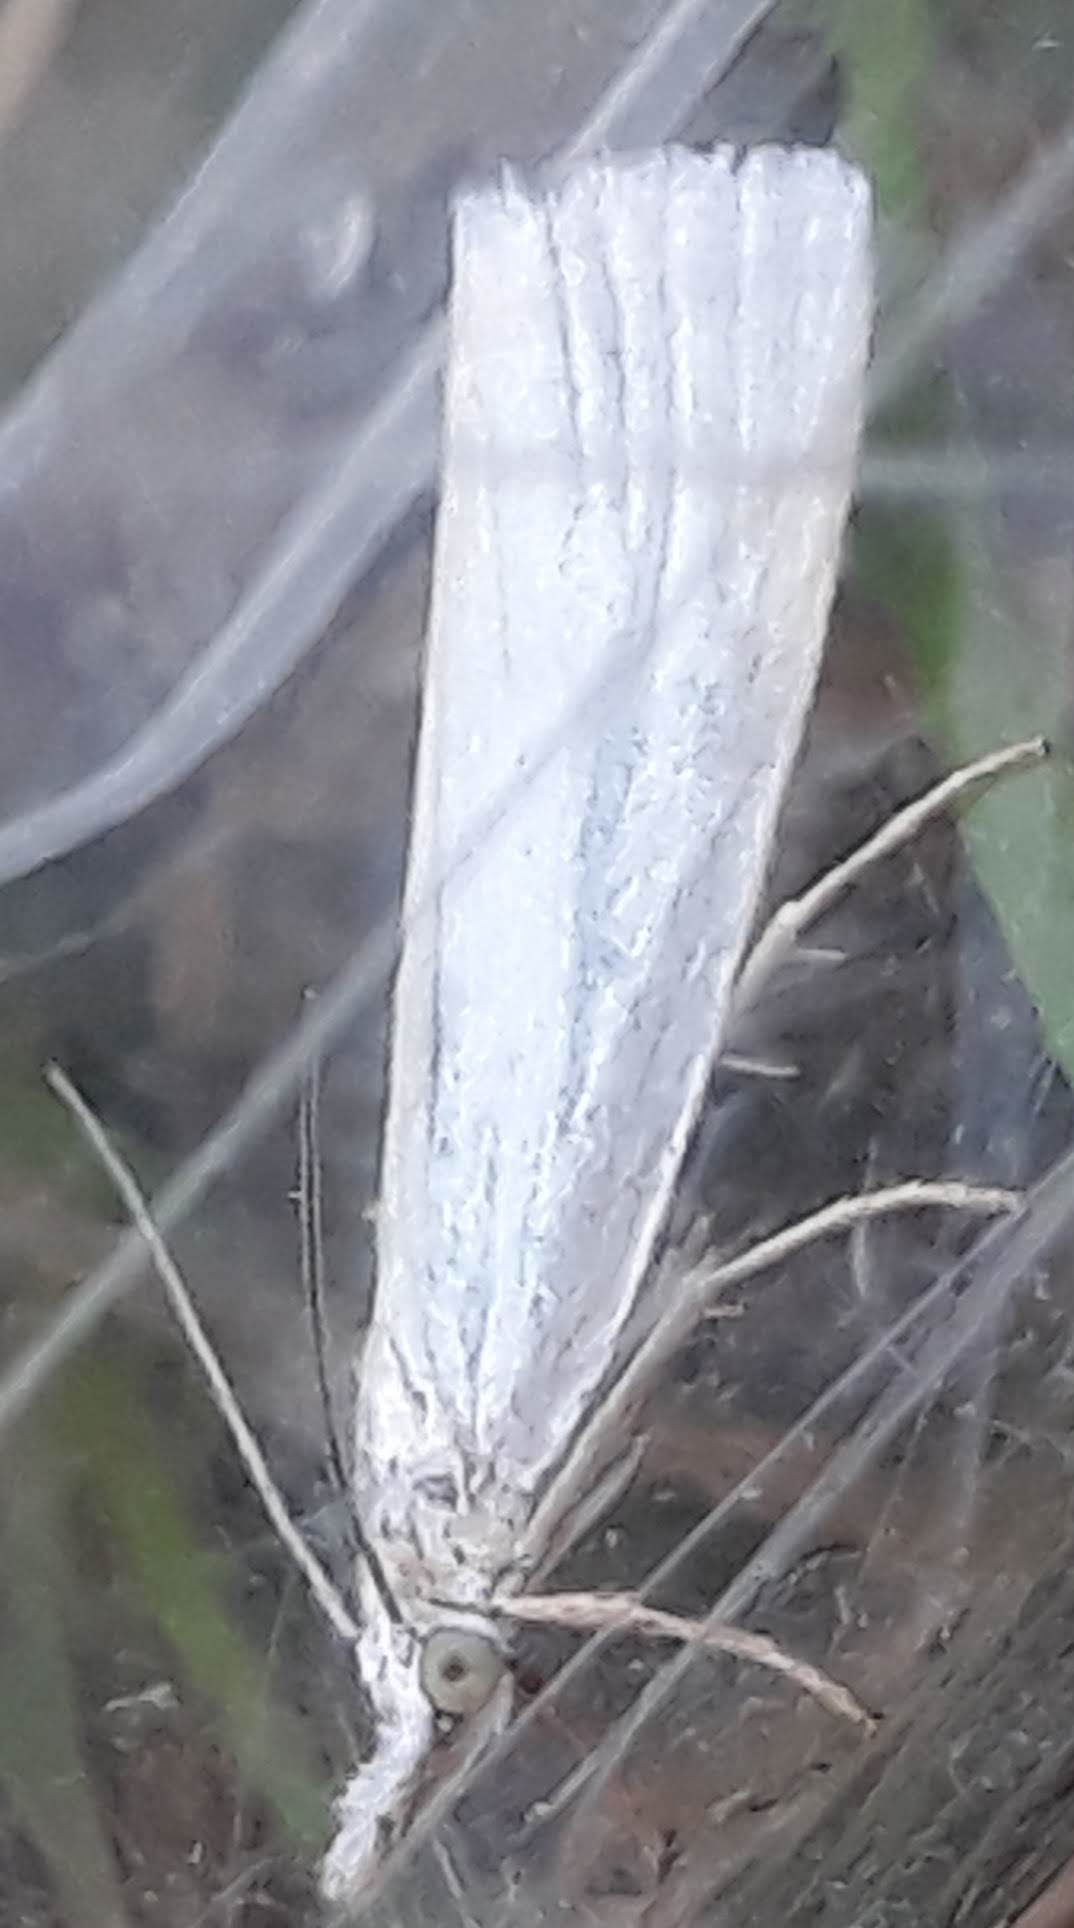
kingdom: Animalia
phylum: Arthropoda
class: Insecta
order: Lepidoptera
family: Crambidae
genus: Crambus
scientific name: Crambus perlellus
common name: Yellow satin veneer
